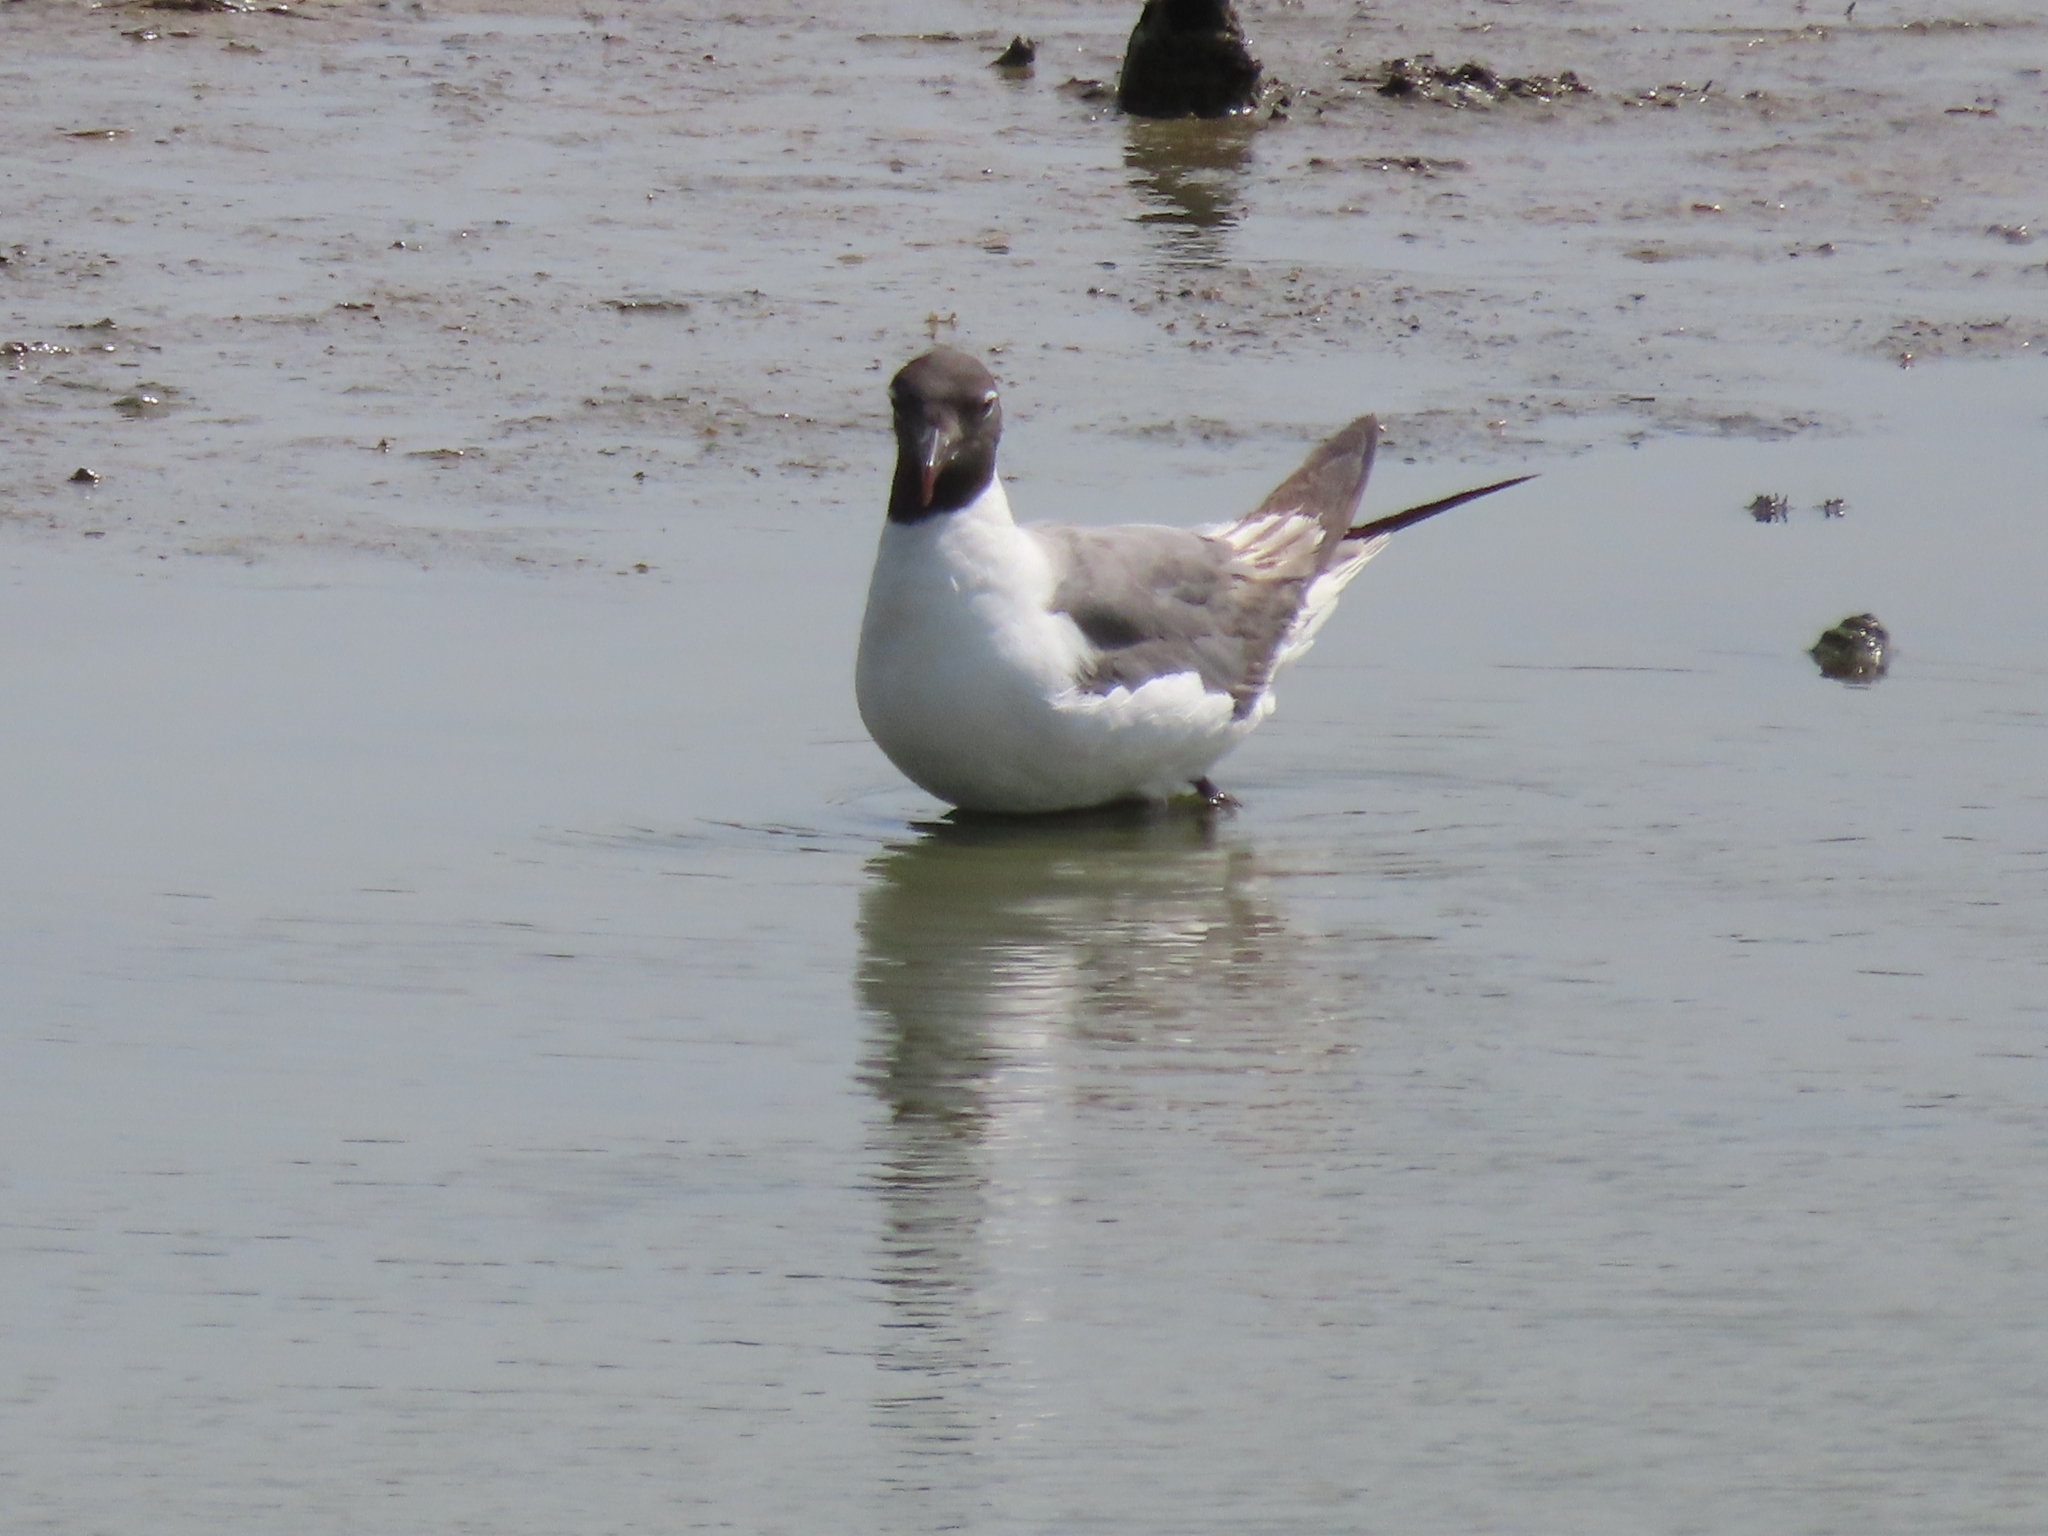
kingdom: Animalia
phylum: Chordata
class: Aves
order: Charadriiformes
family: Laridae
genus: Leucophaeus
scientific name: Leucophaeus atricilla
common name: Laughing gull
